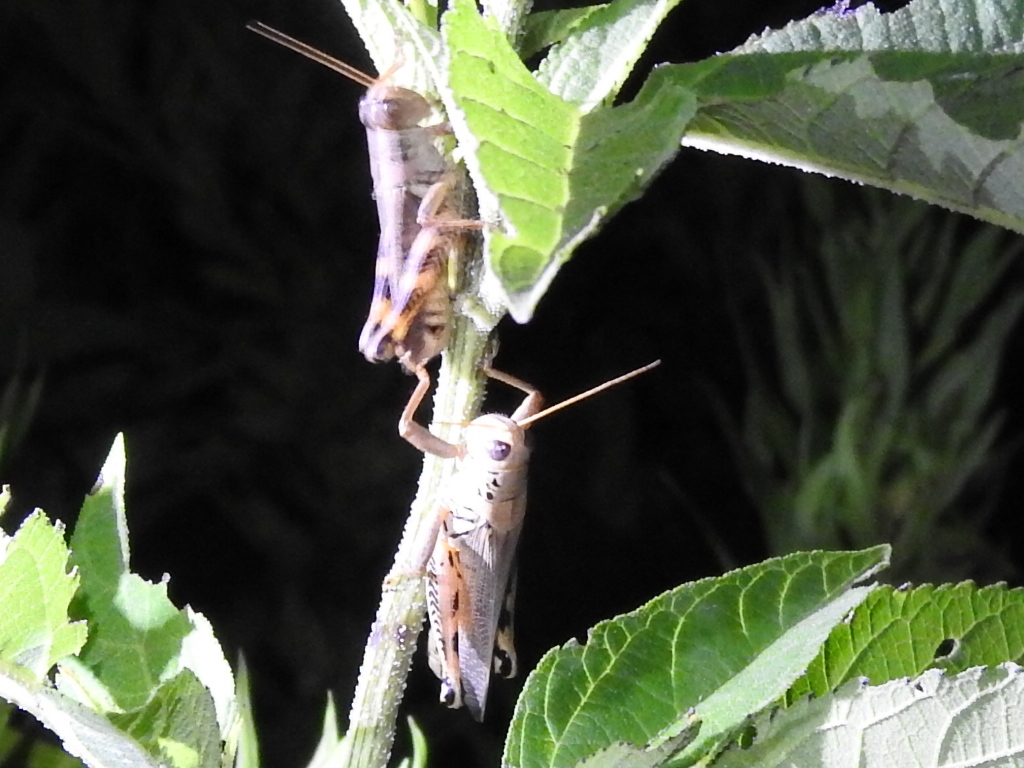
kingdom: Animalia
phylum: Arthropoda
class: Insecta
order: Orthoptera
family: Acrididae
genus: Melanoplus
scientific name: Melanoplus differentialis
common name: Differential grasshopper
